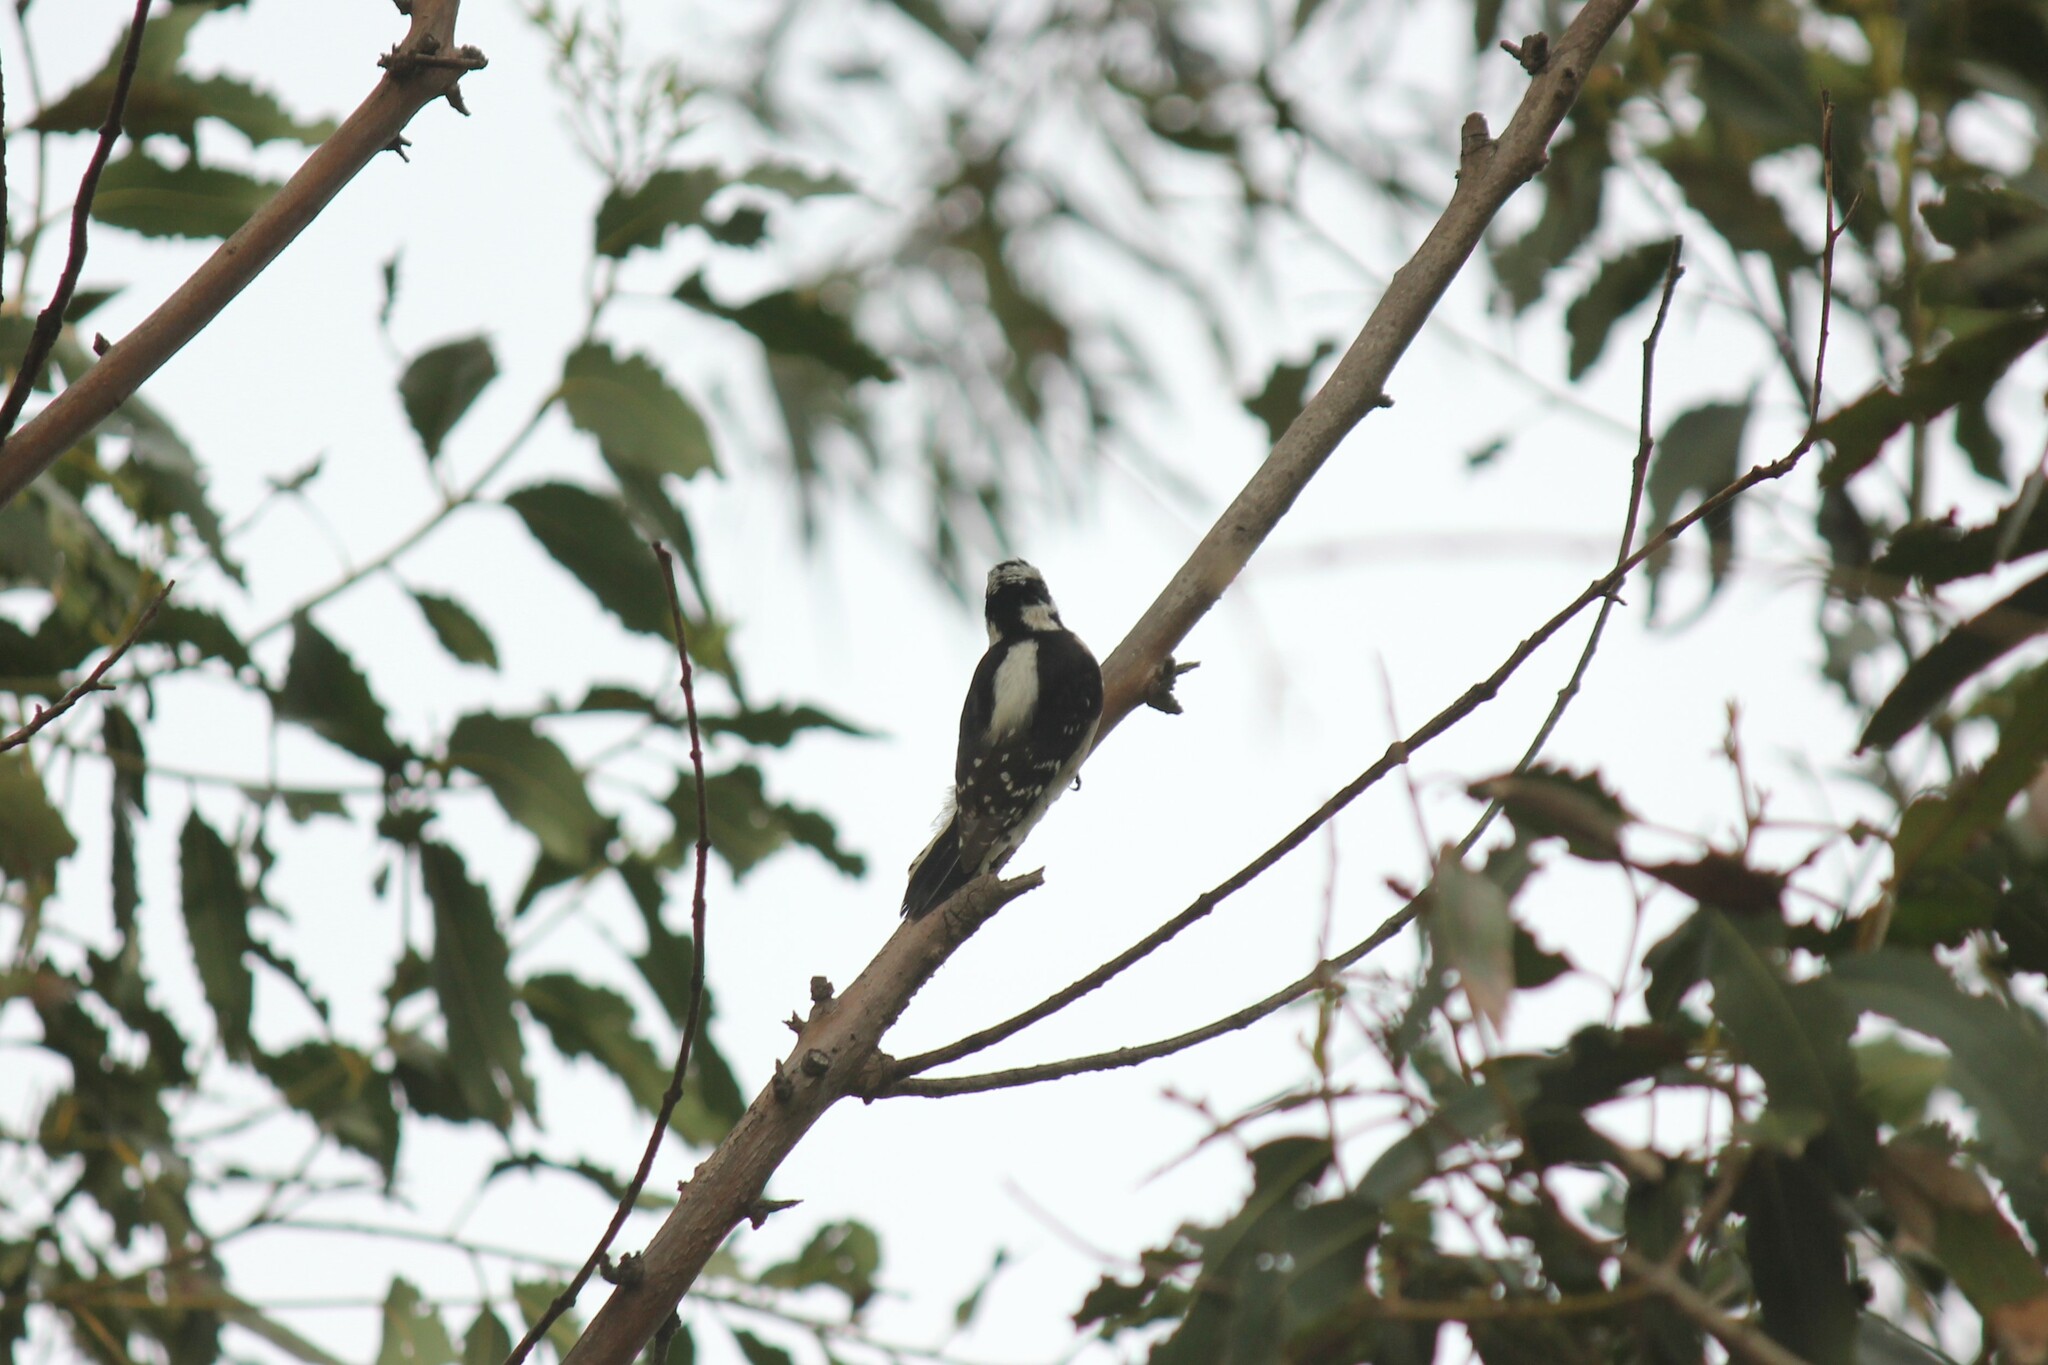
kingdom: Animalia
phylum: Chordata
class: Aves
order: Piciformes
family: Picidae
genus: Dryobates
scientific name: Dryobates pubescens
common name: Downy woodpecker
